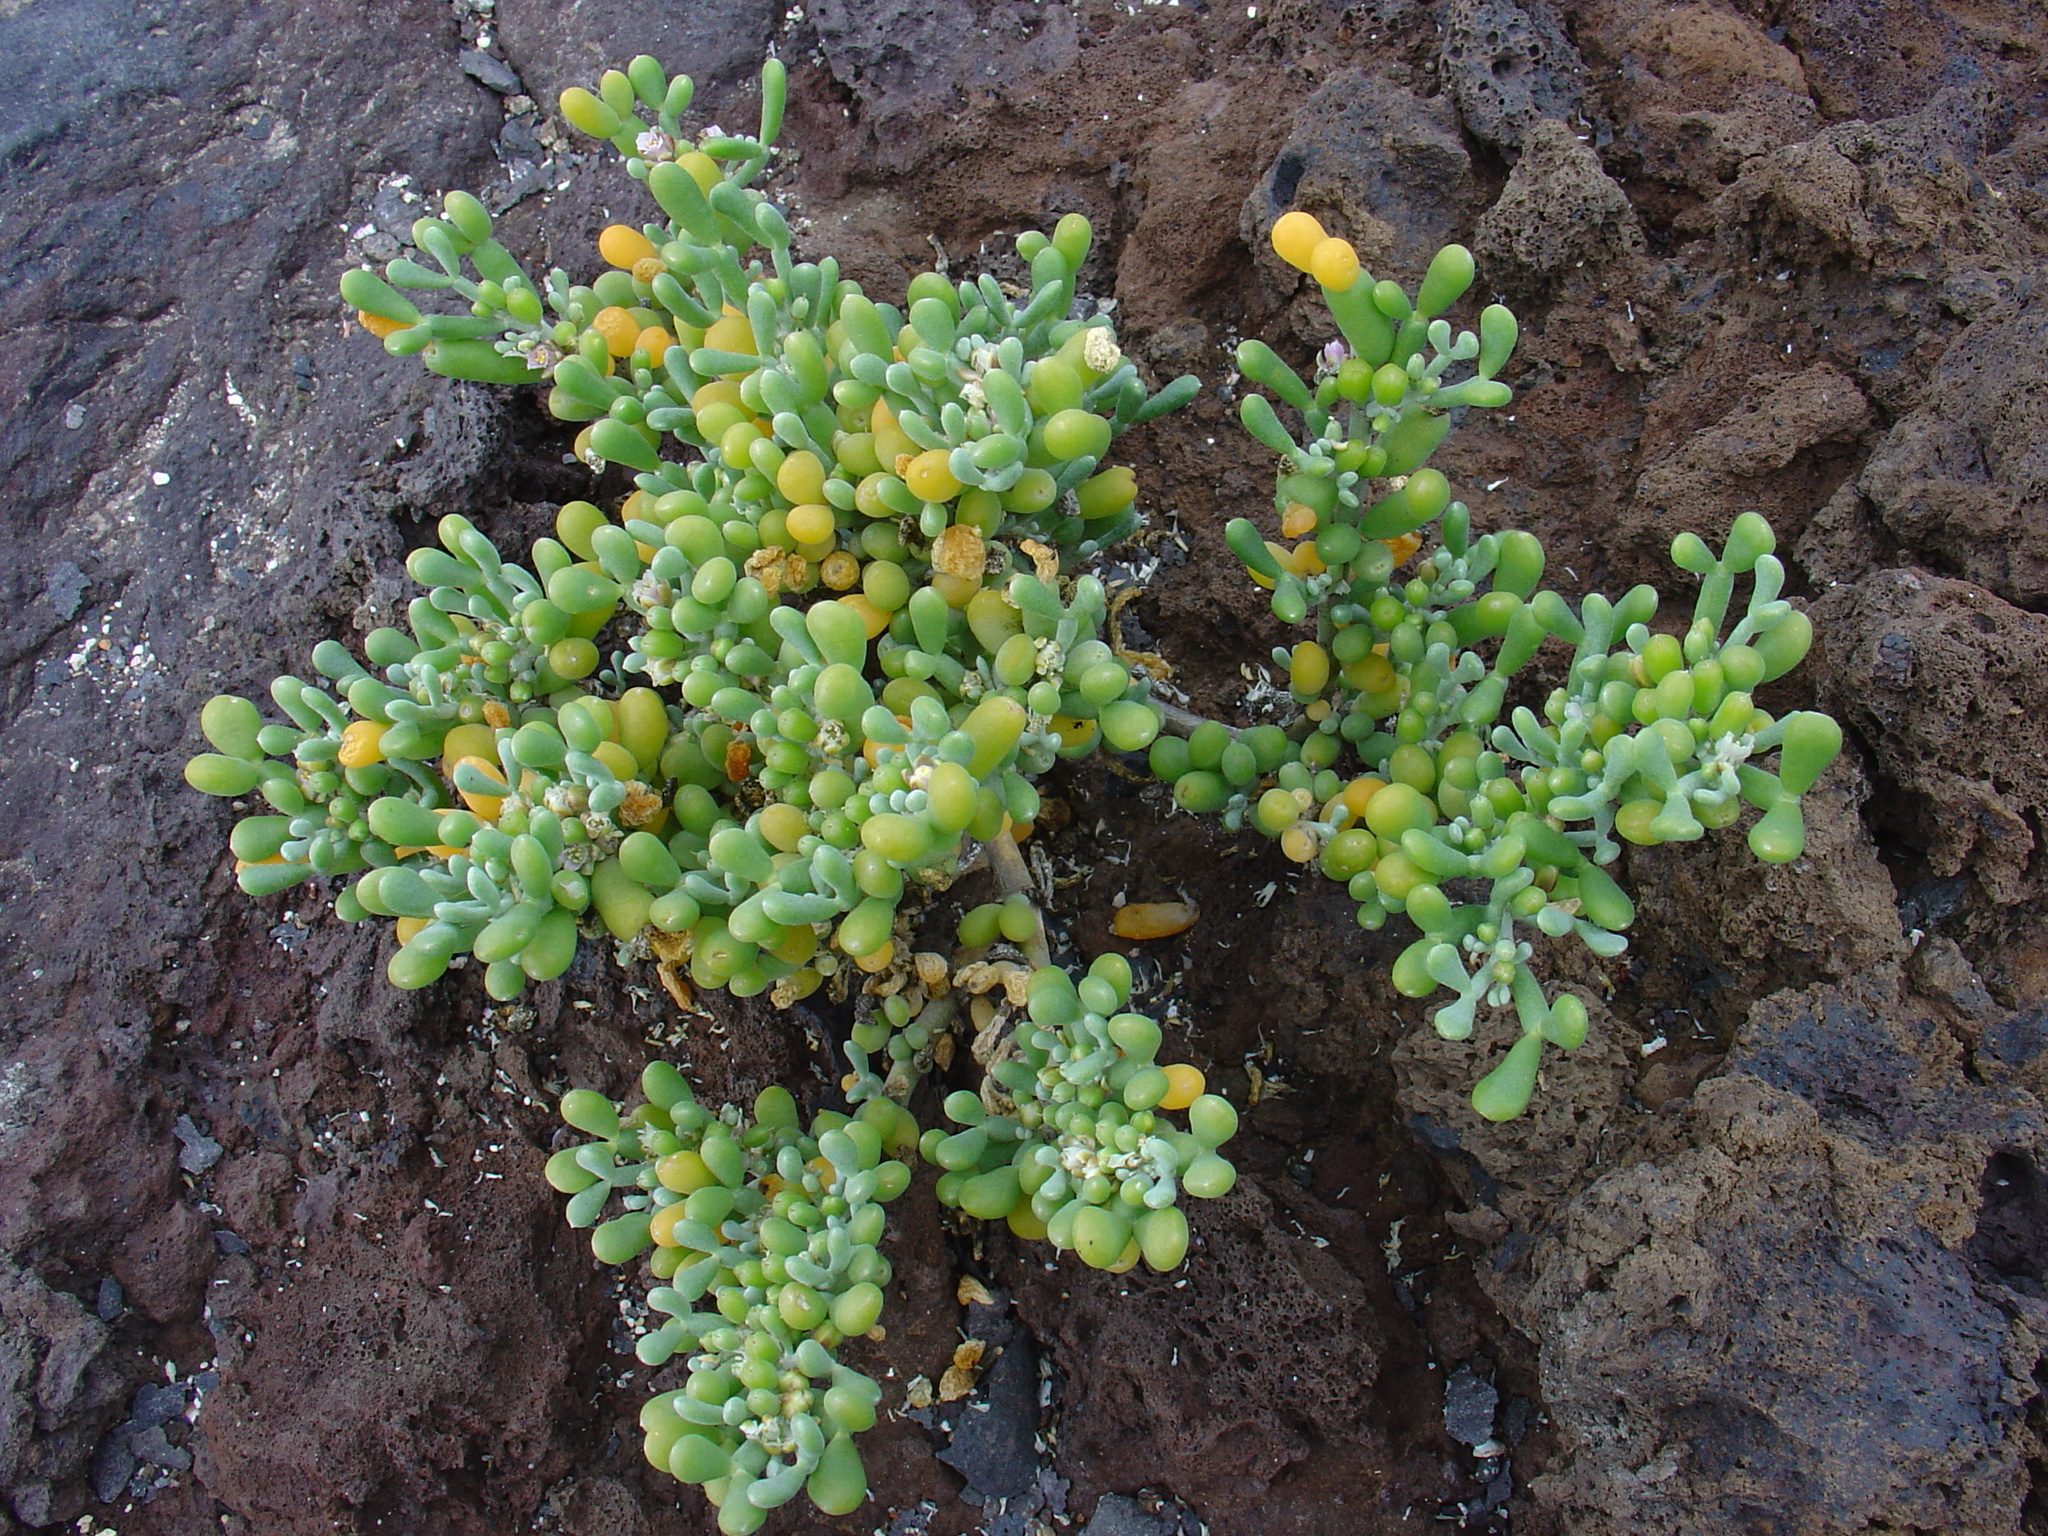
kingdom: Plantae
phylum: Tracheophyta
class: Magnoliopsida
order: Zygophyllales
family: Zygophyllaceae
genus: Tetraena
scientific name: Tetraena fontanesii
